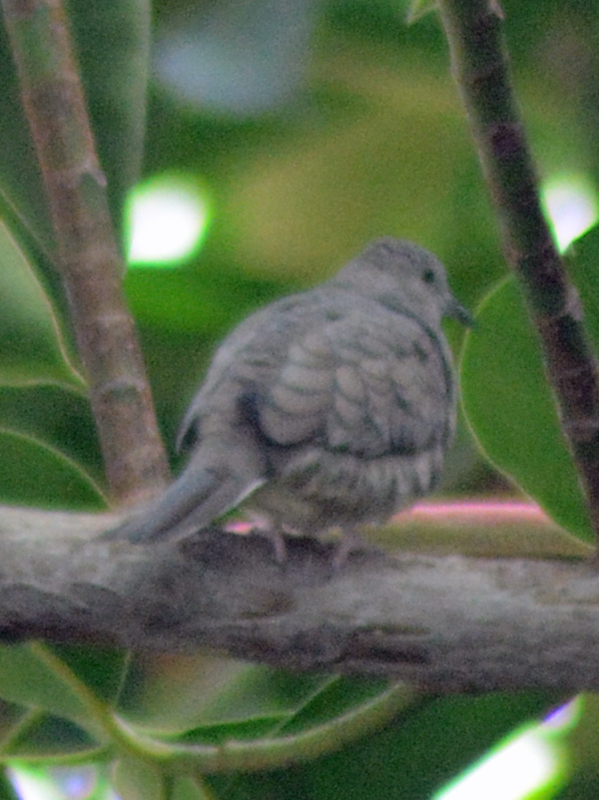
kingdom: Animalia
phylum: Chordata
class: Aves
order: Columbiformes
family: Columbidae
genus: Columbina
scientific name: Columbina inca
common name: Inca dove
